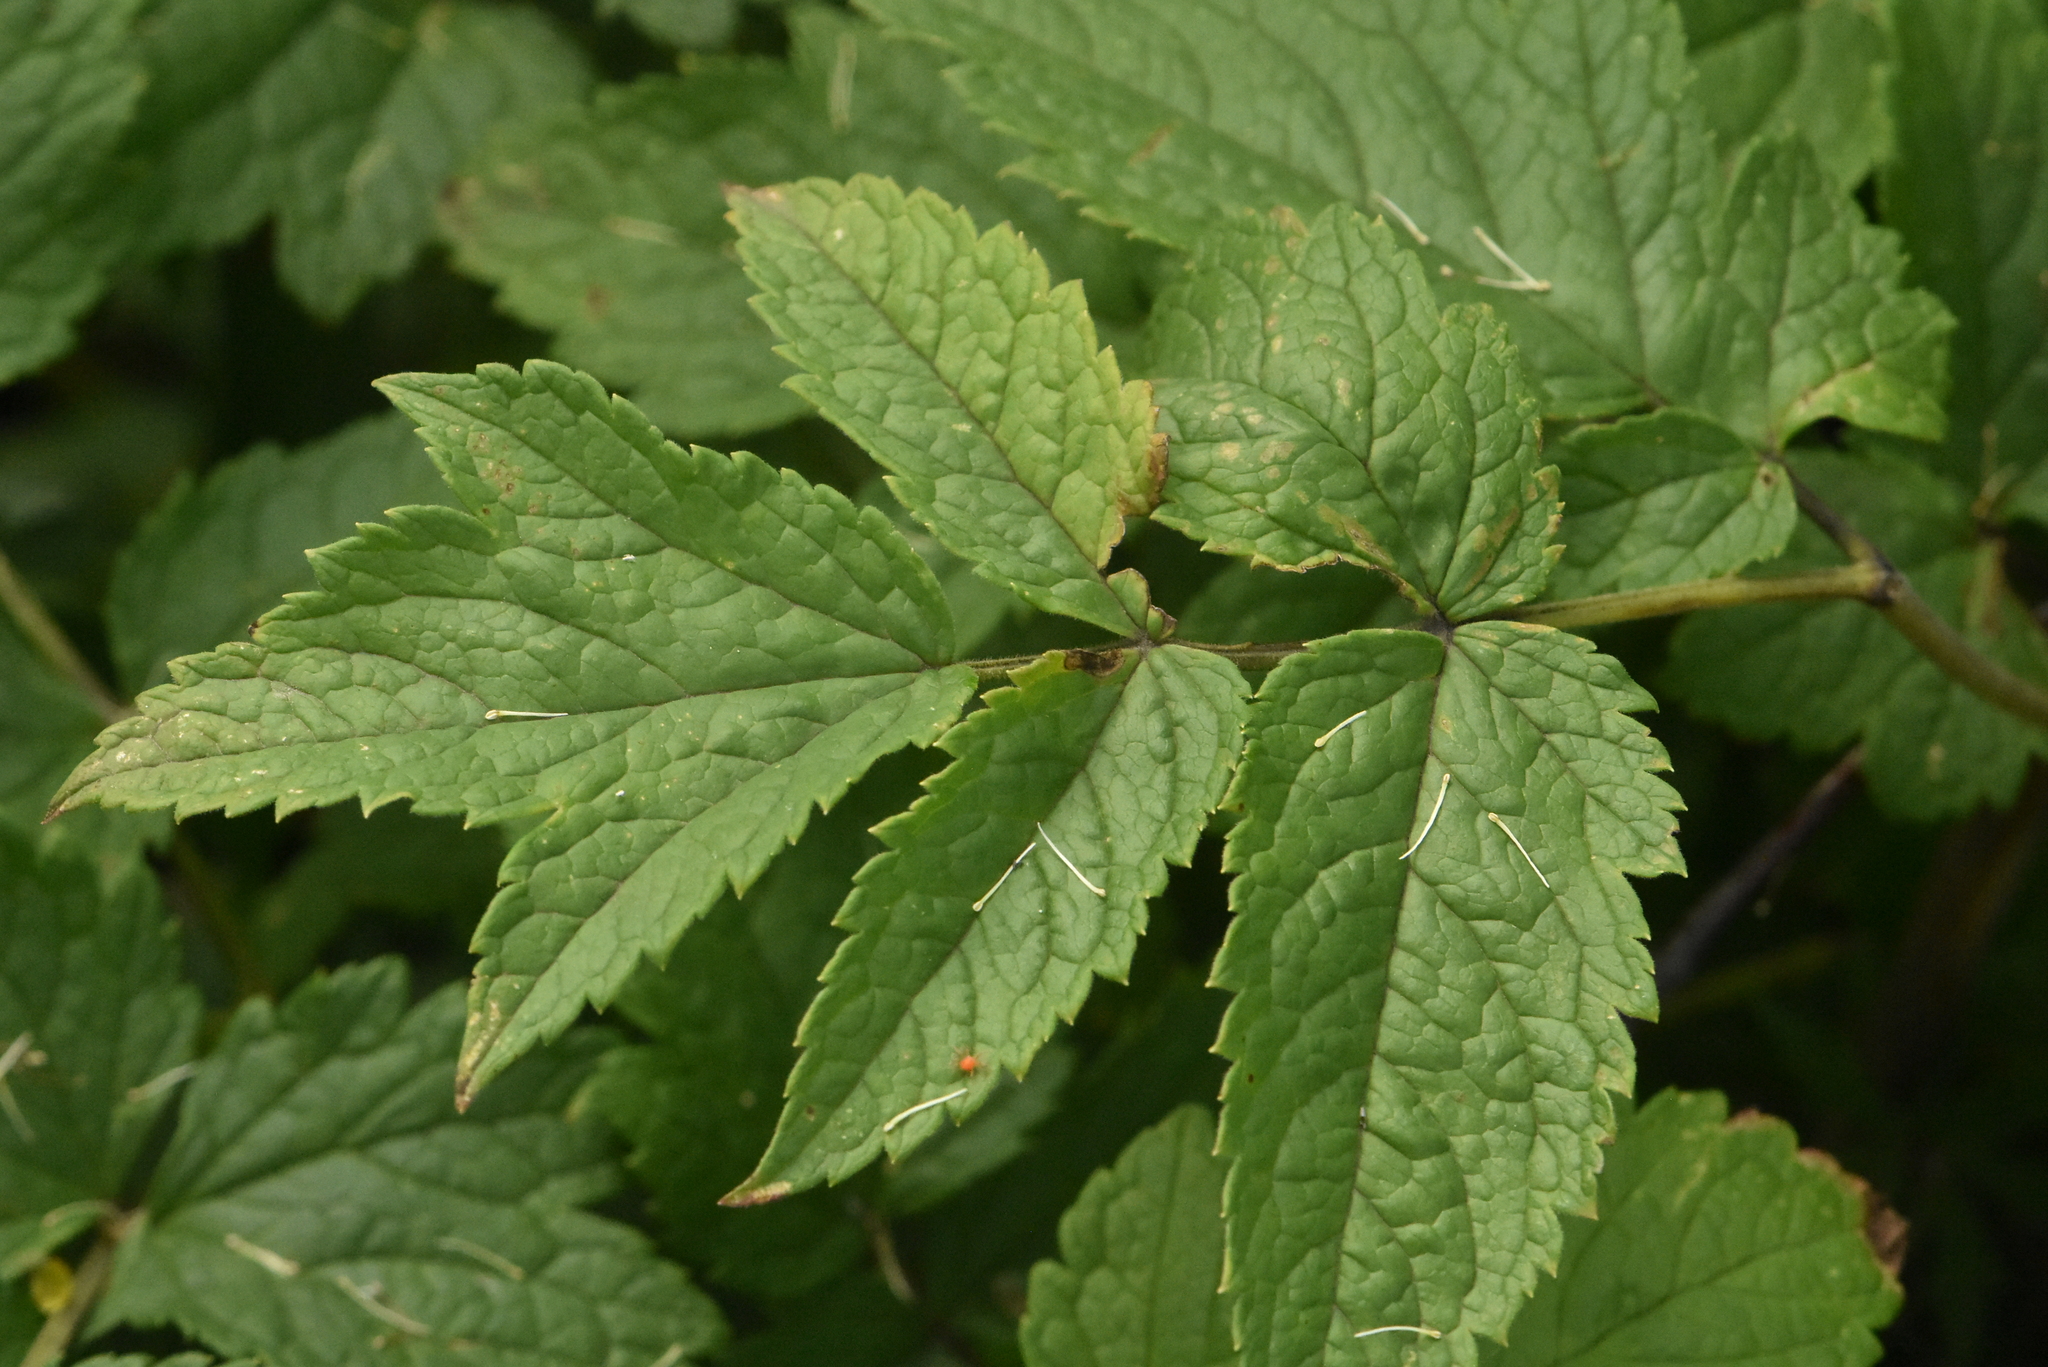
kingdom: Plantae
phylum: Tracheophyta
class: Magnoliopsida
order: Ranunculales
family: Ranunculaceae
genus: Actaea
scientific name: Actaea cimicifuga
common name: Chinese cimicifuga
